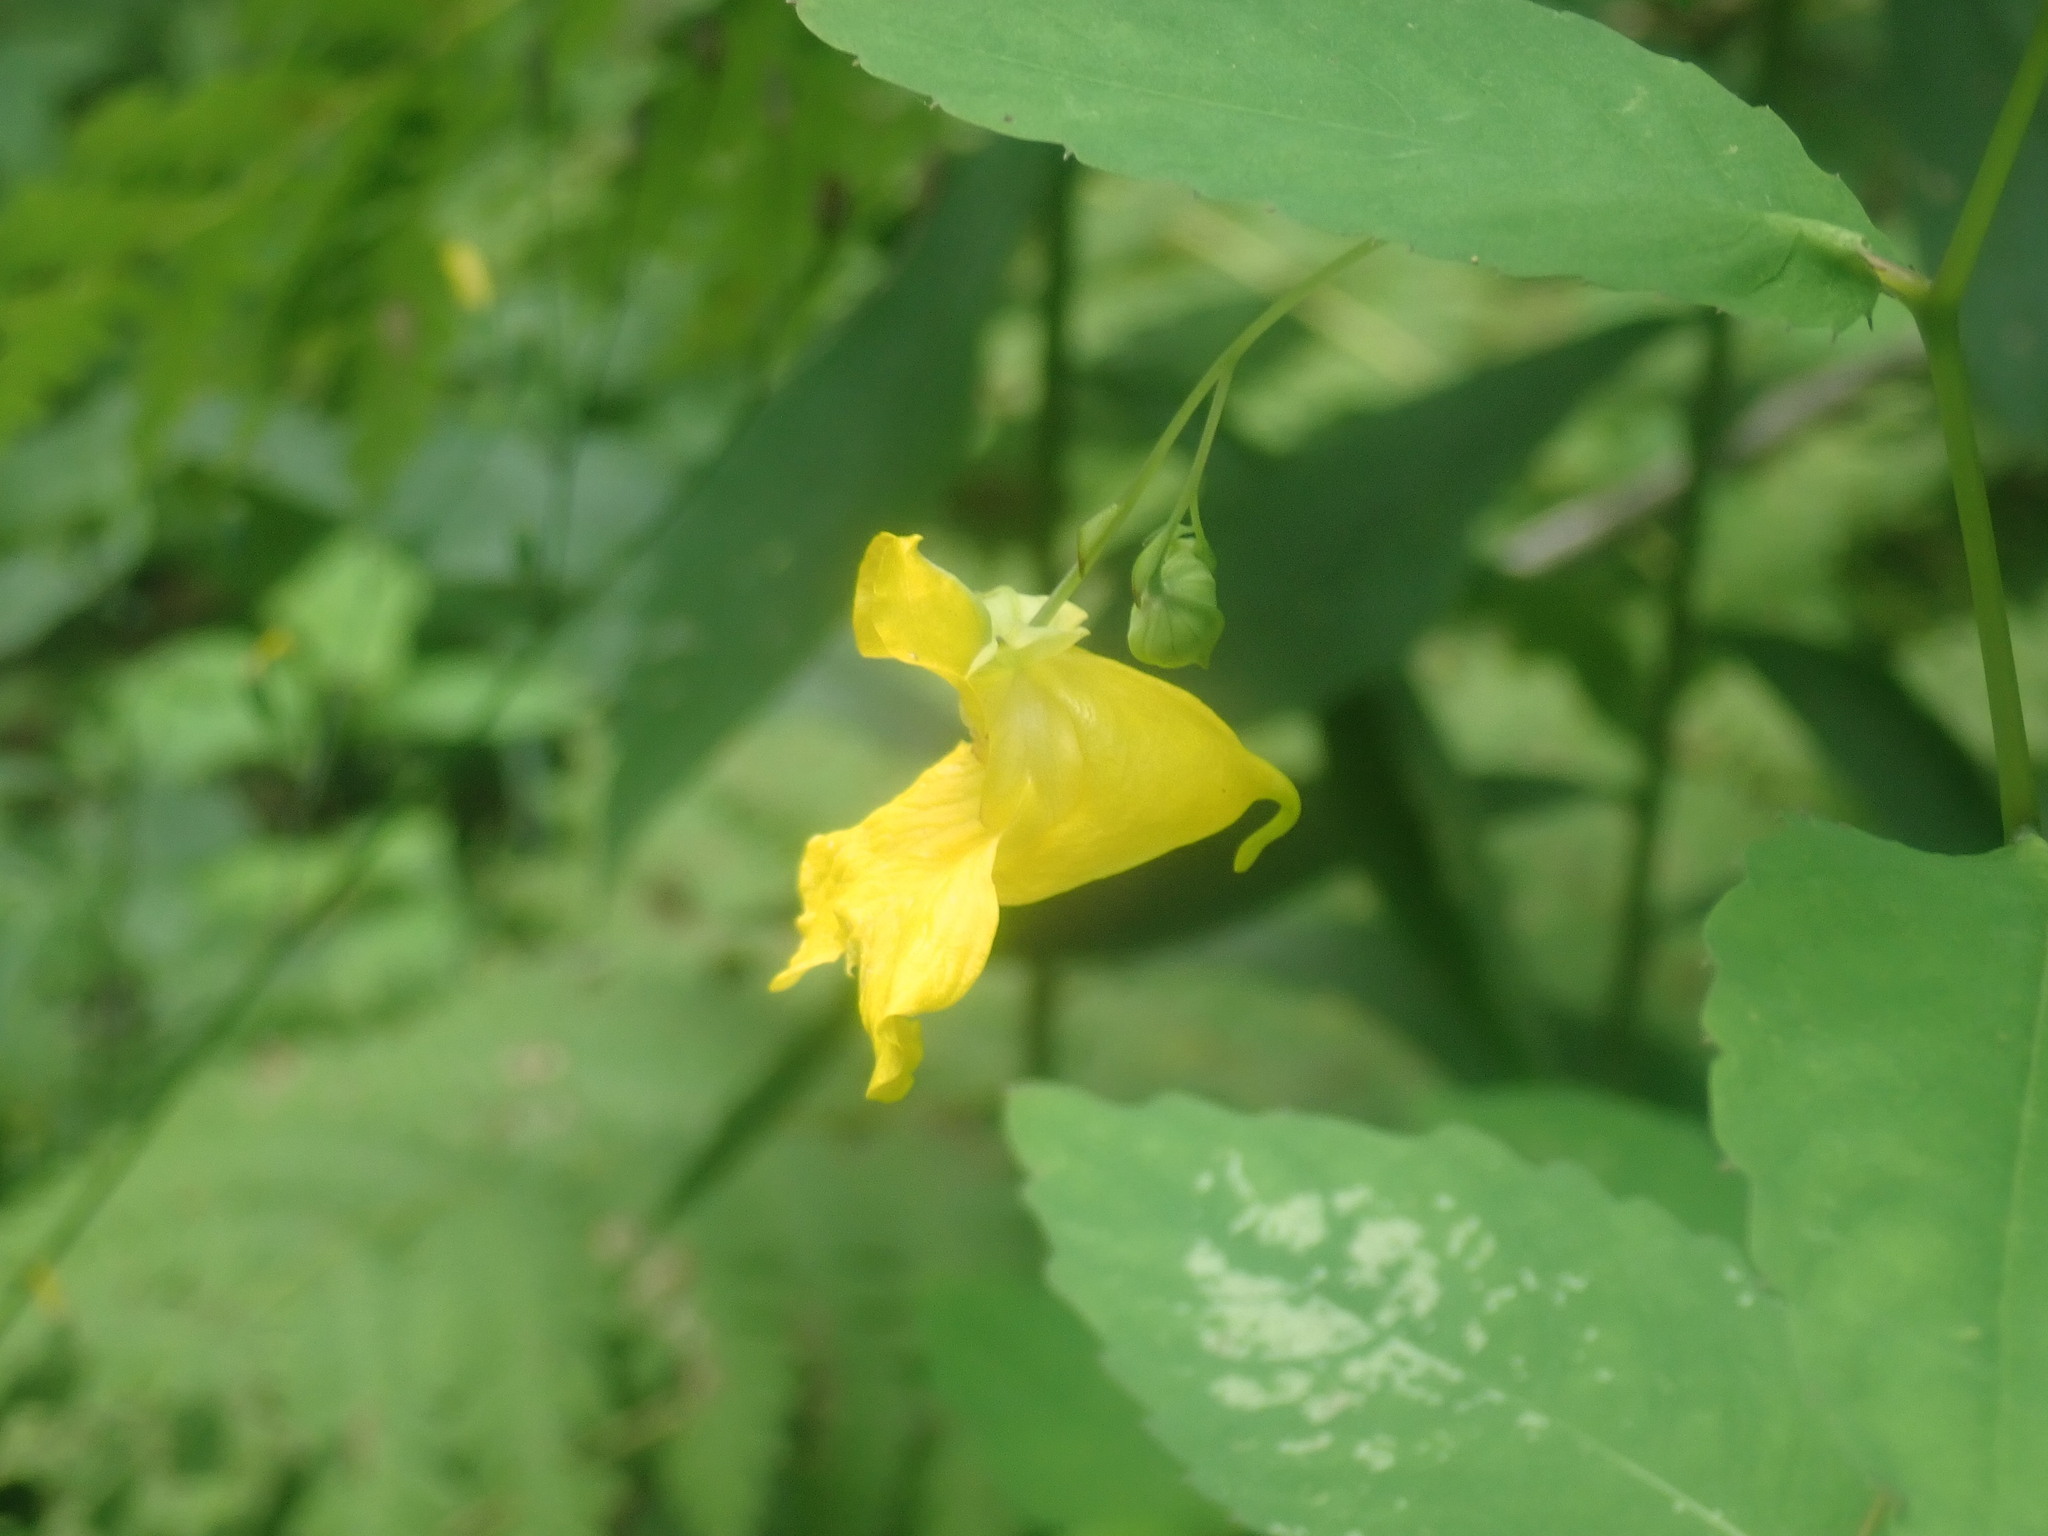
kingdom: Plantae
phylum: Tracheophyta
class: Magnoliopsida
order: Ericales
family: Balsaminaceae
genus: Impatiens
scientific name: Impatiens pallida
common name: Pale snapweed
